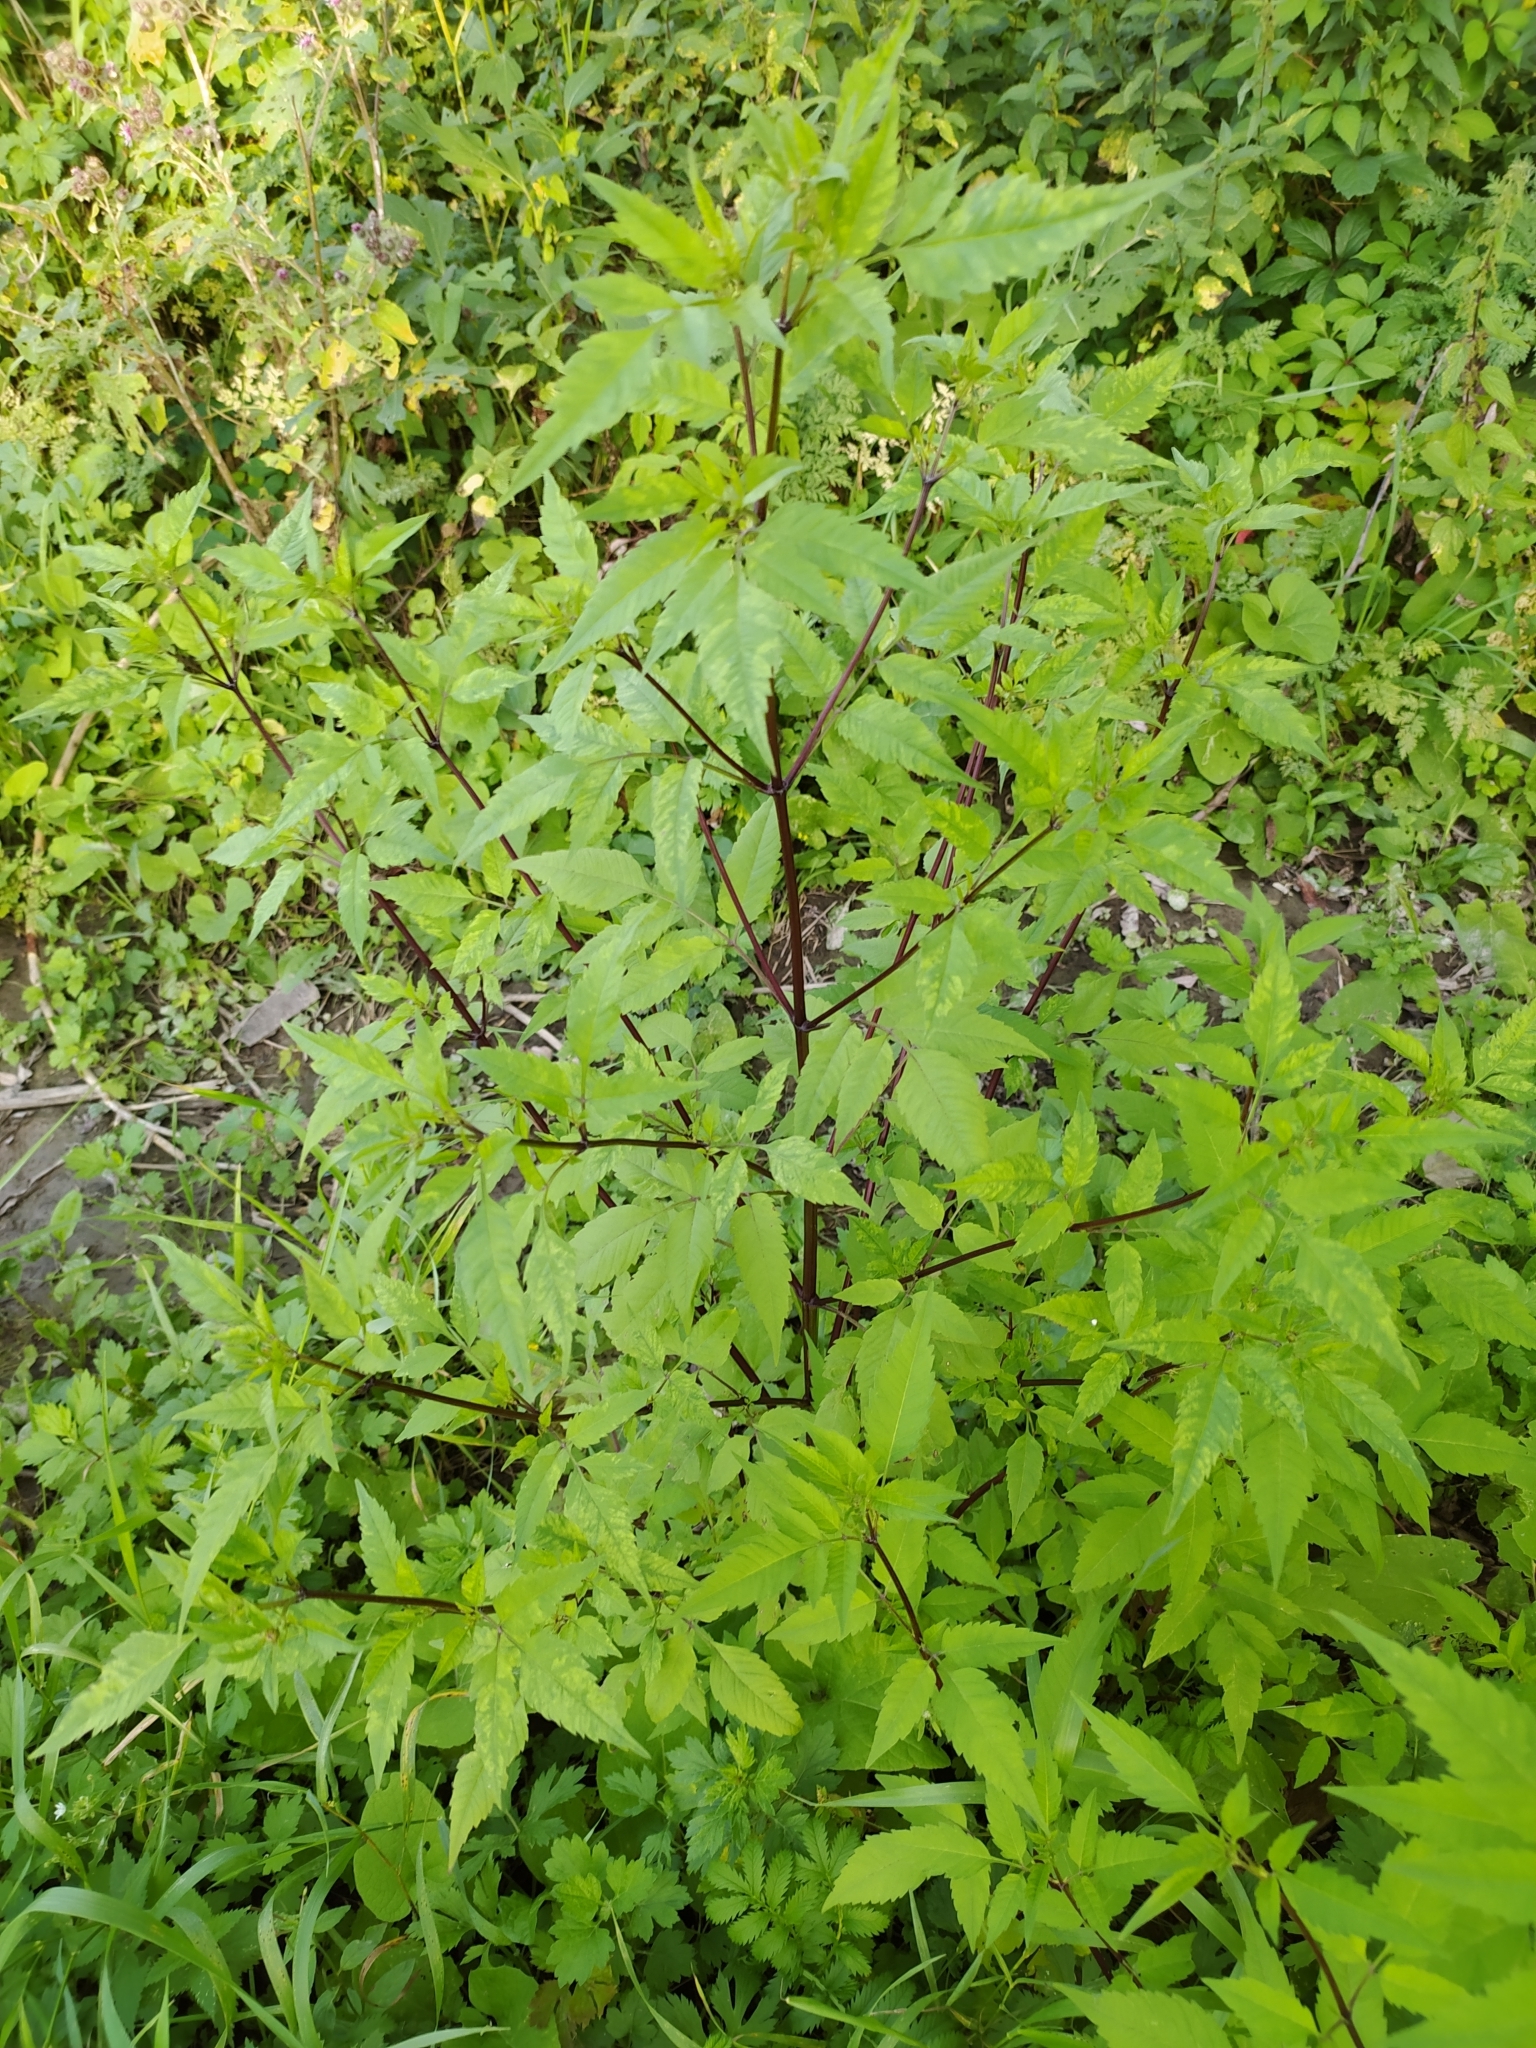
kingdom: Plantae
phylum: Tracheophyta
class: Magnoliopsida
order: Asterales
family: Asteraceae
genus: Bidens
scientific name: Bidens frondosa
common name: Beggarticks
